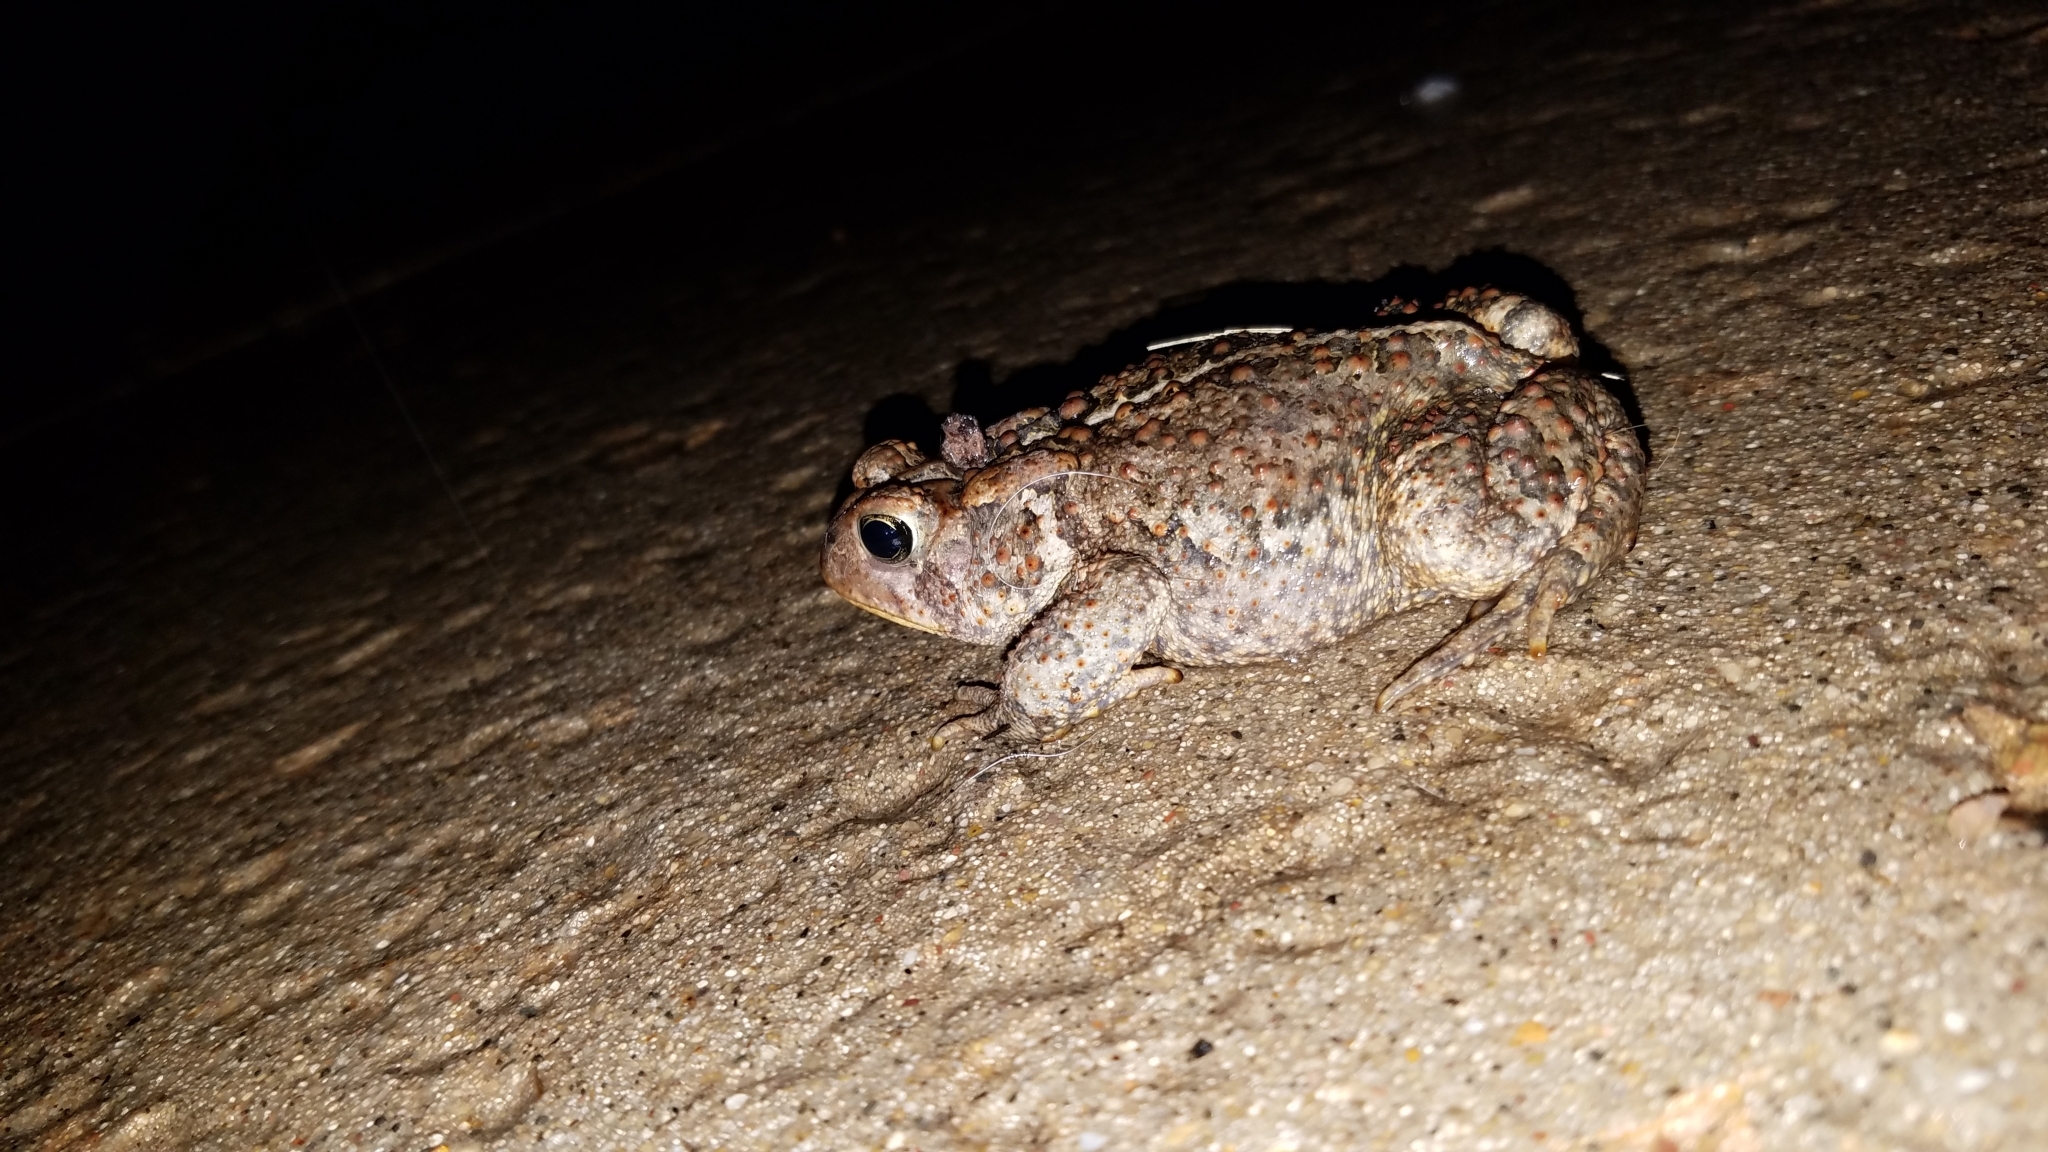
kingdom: Animalia
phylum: Chordata
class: Amphibia
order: Anura
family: Bufonidae
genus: Anaxyrus
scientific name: Anaxyrus americanus
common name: American toad
